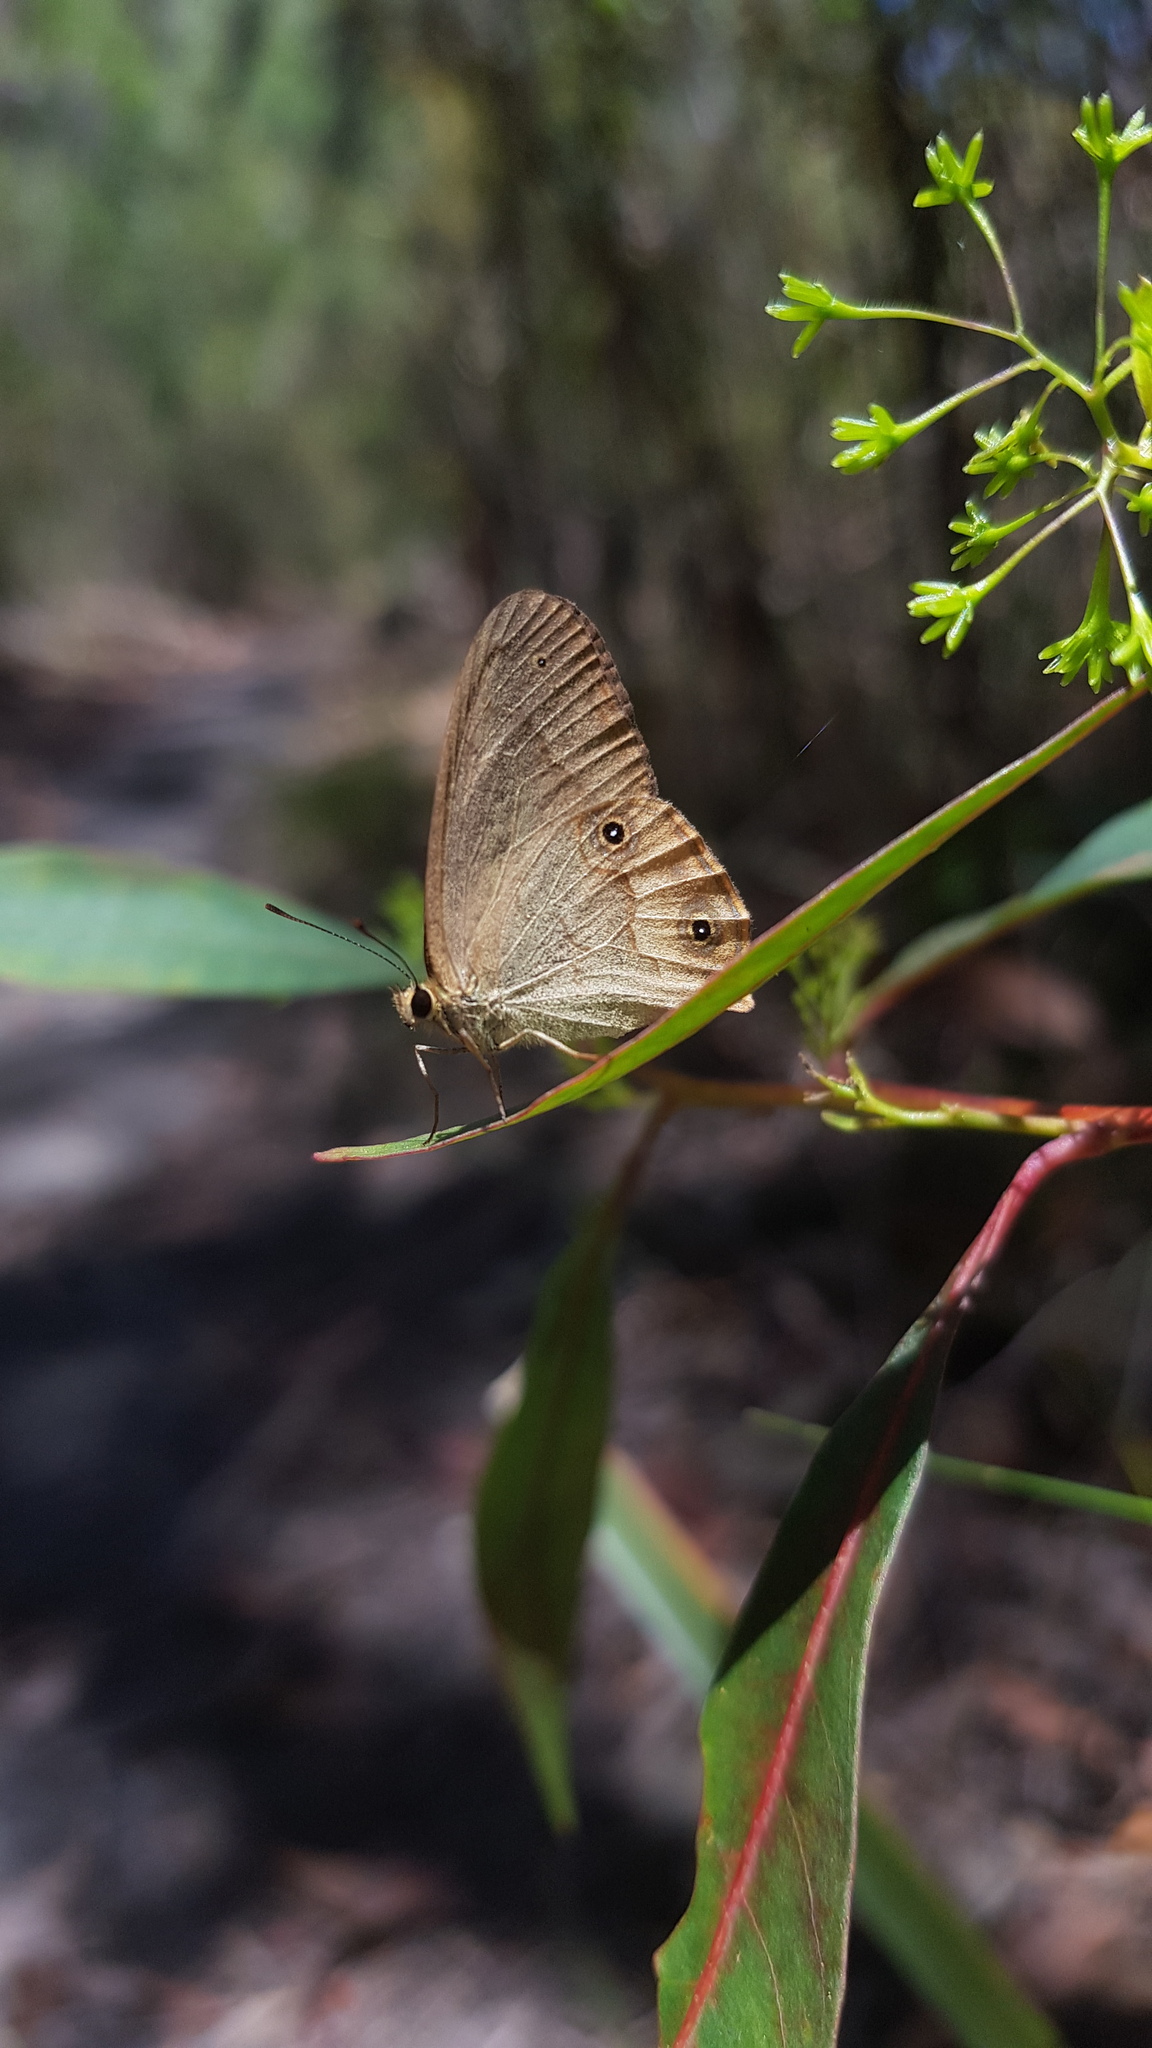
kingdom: Animalia
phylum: Arthropoda
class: Insecta
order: Lepidoptera
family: Nymphalidae
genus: Hypocysta
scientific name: Hypocysta metirius
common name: Brown ringlet
